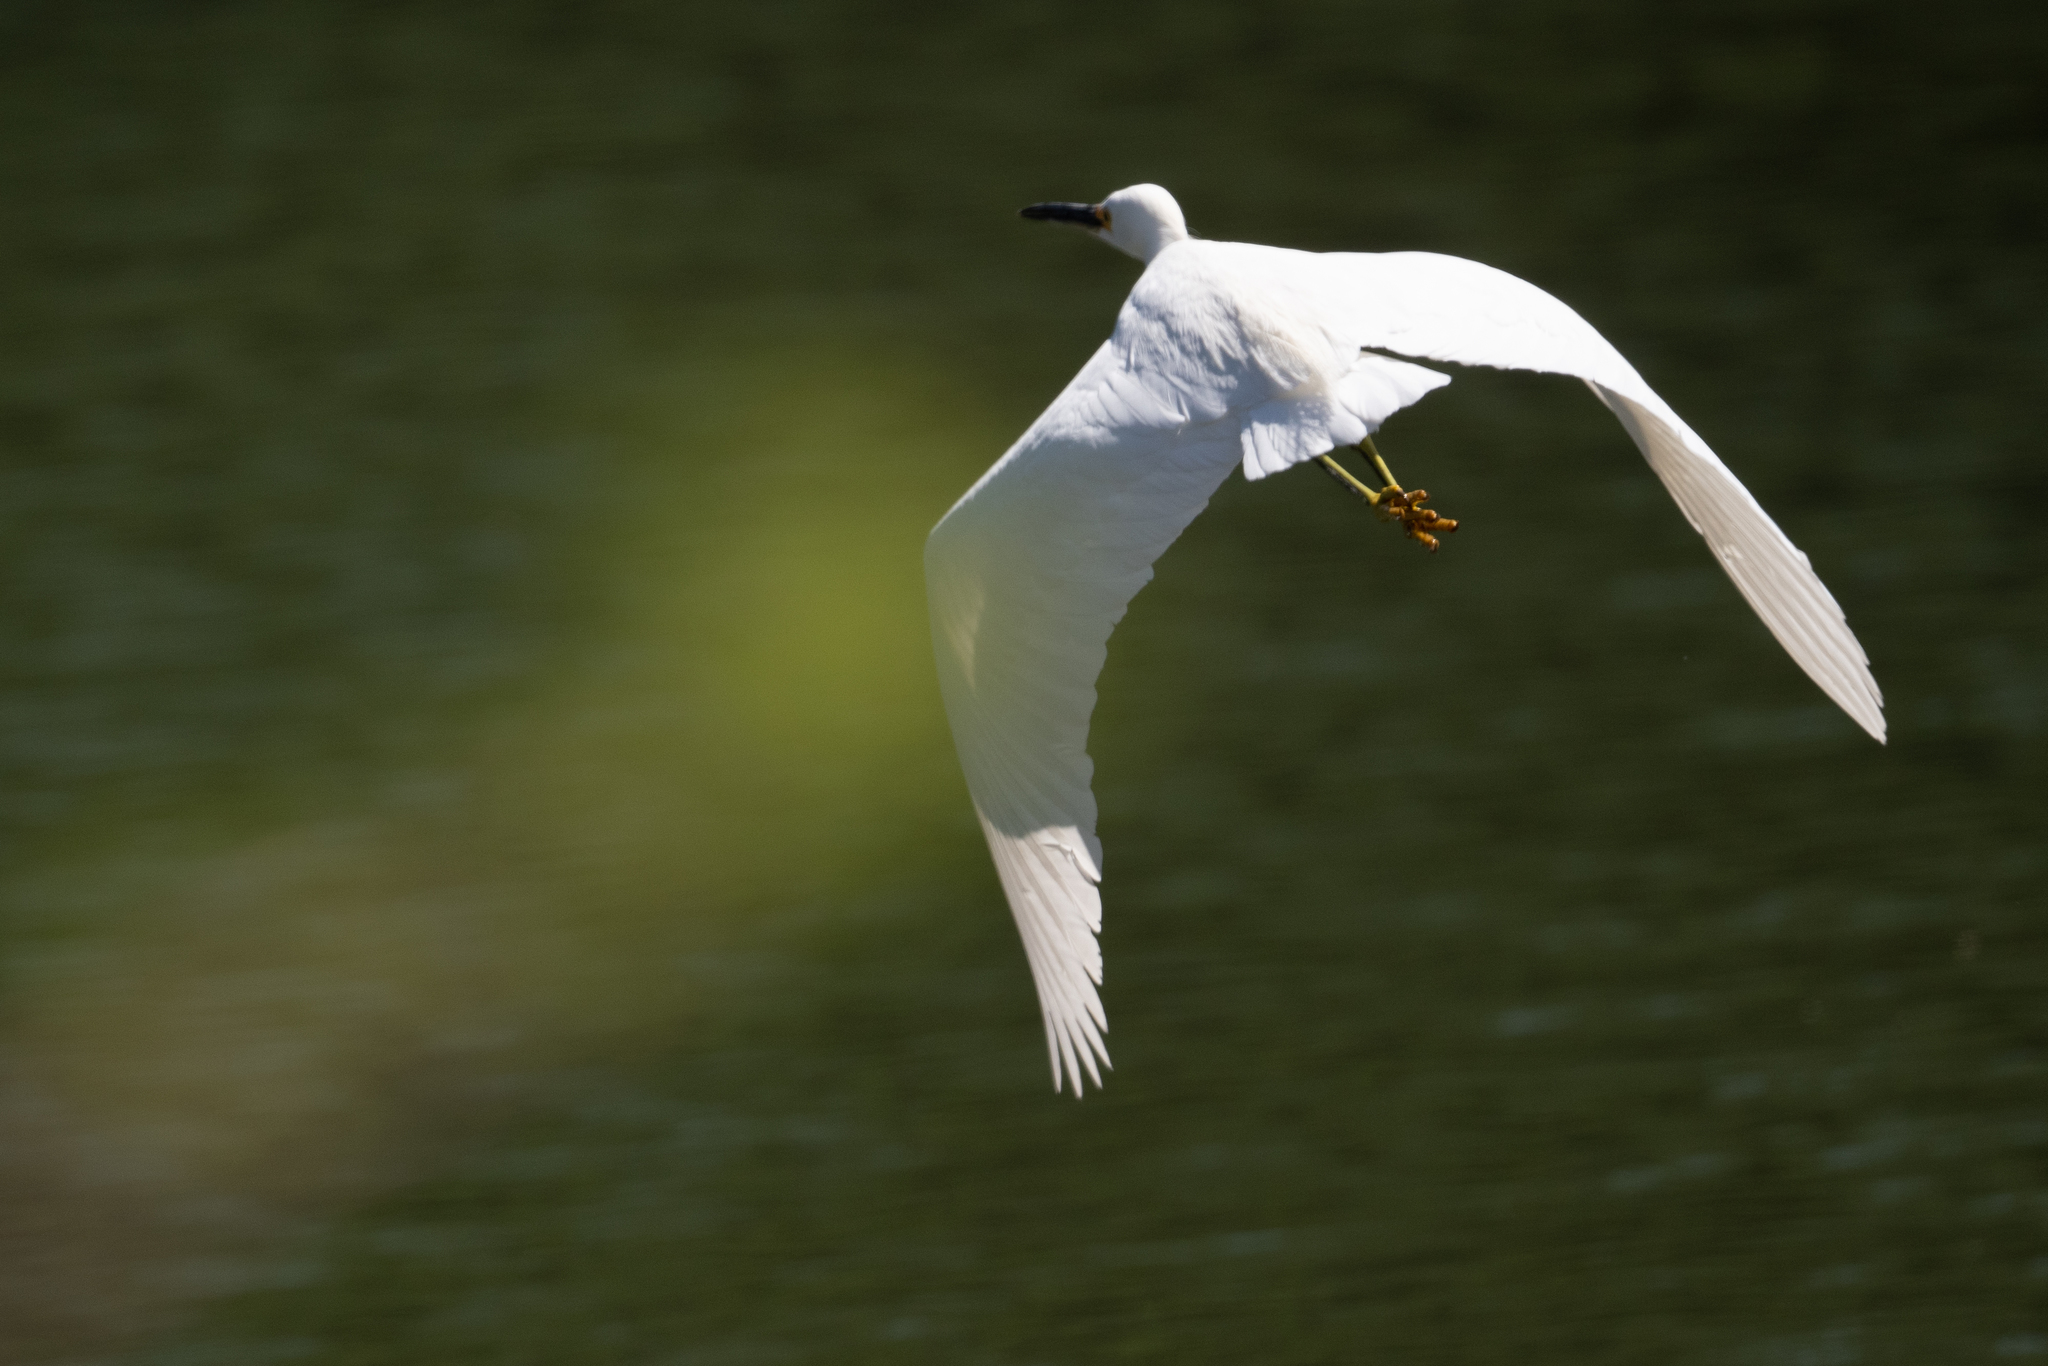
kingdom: Animalia
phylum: Chordata
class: Aves
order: Pelecaniformes
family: Ardeidae
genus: Egretta
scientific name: Egretta thula
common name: Snowy egret
